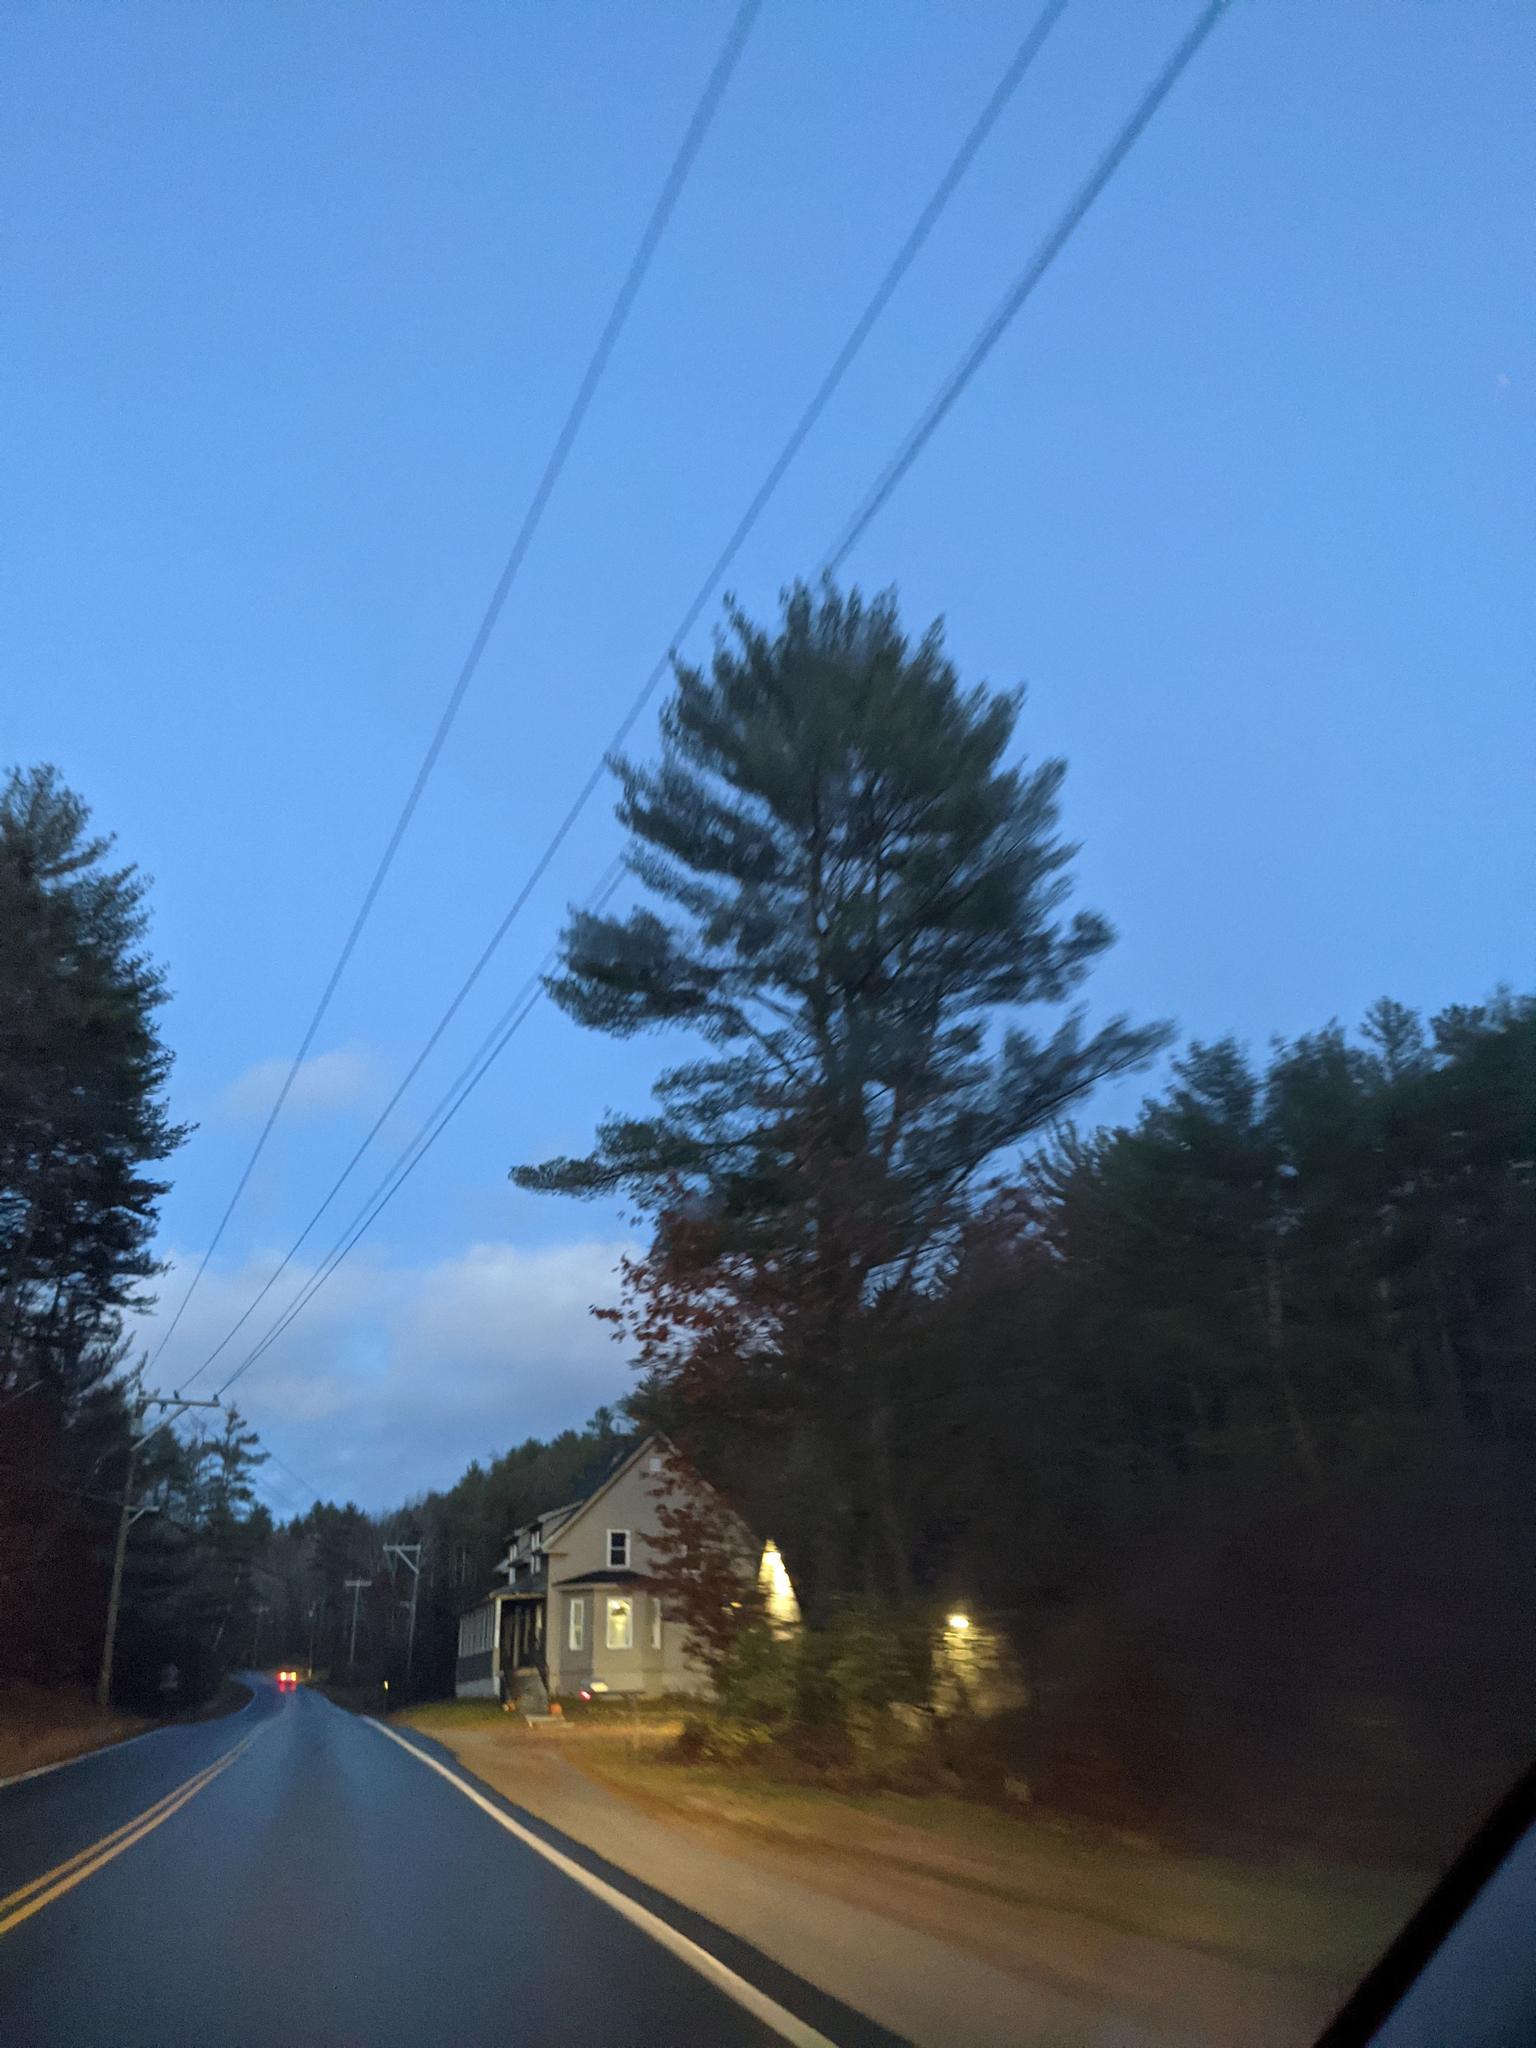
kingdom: Plantae
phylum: Tracheophyta
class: Pinopsida
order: Pinales
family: Pinaceae
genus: Pinus
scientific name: Pinus strobus
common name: Weymouth pine
